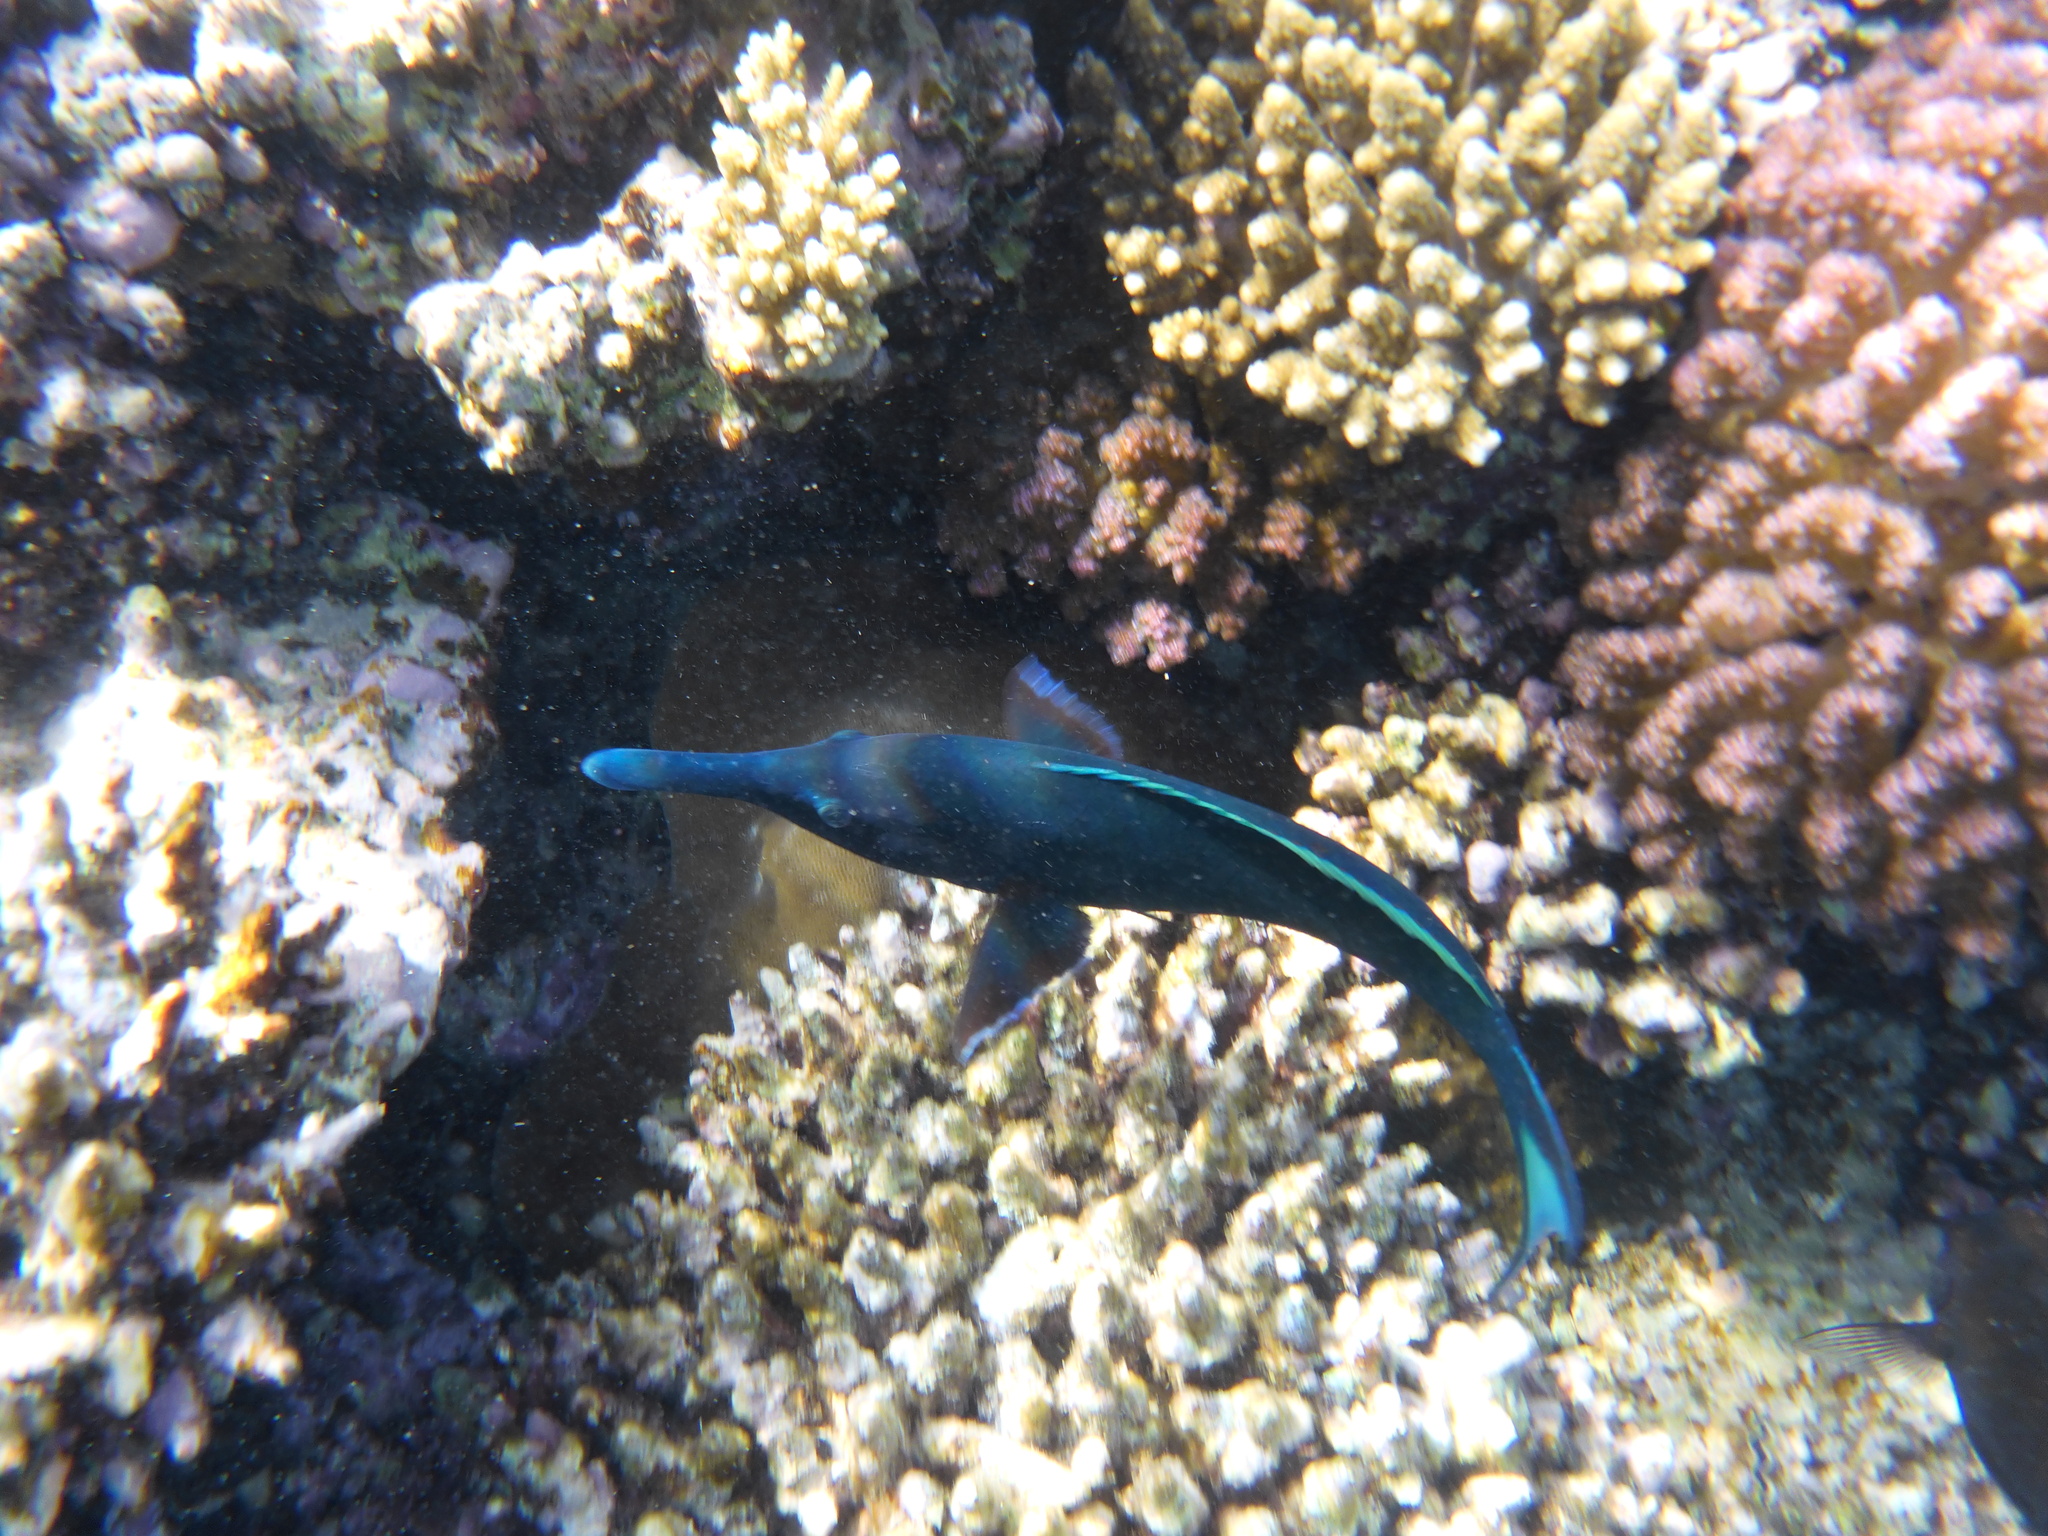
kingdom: Animalia
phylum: Chordata
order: Perciformes
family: Labridae
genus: Gomphosus
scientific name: Gomphosus klunzingeri
